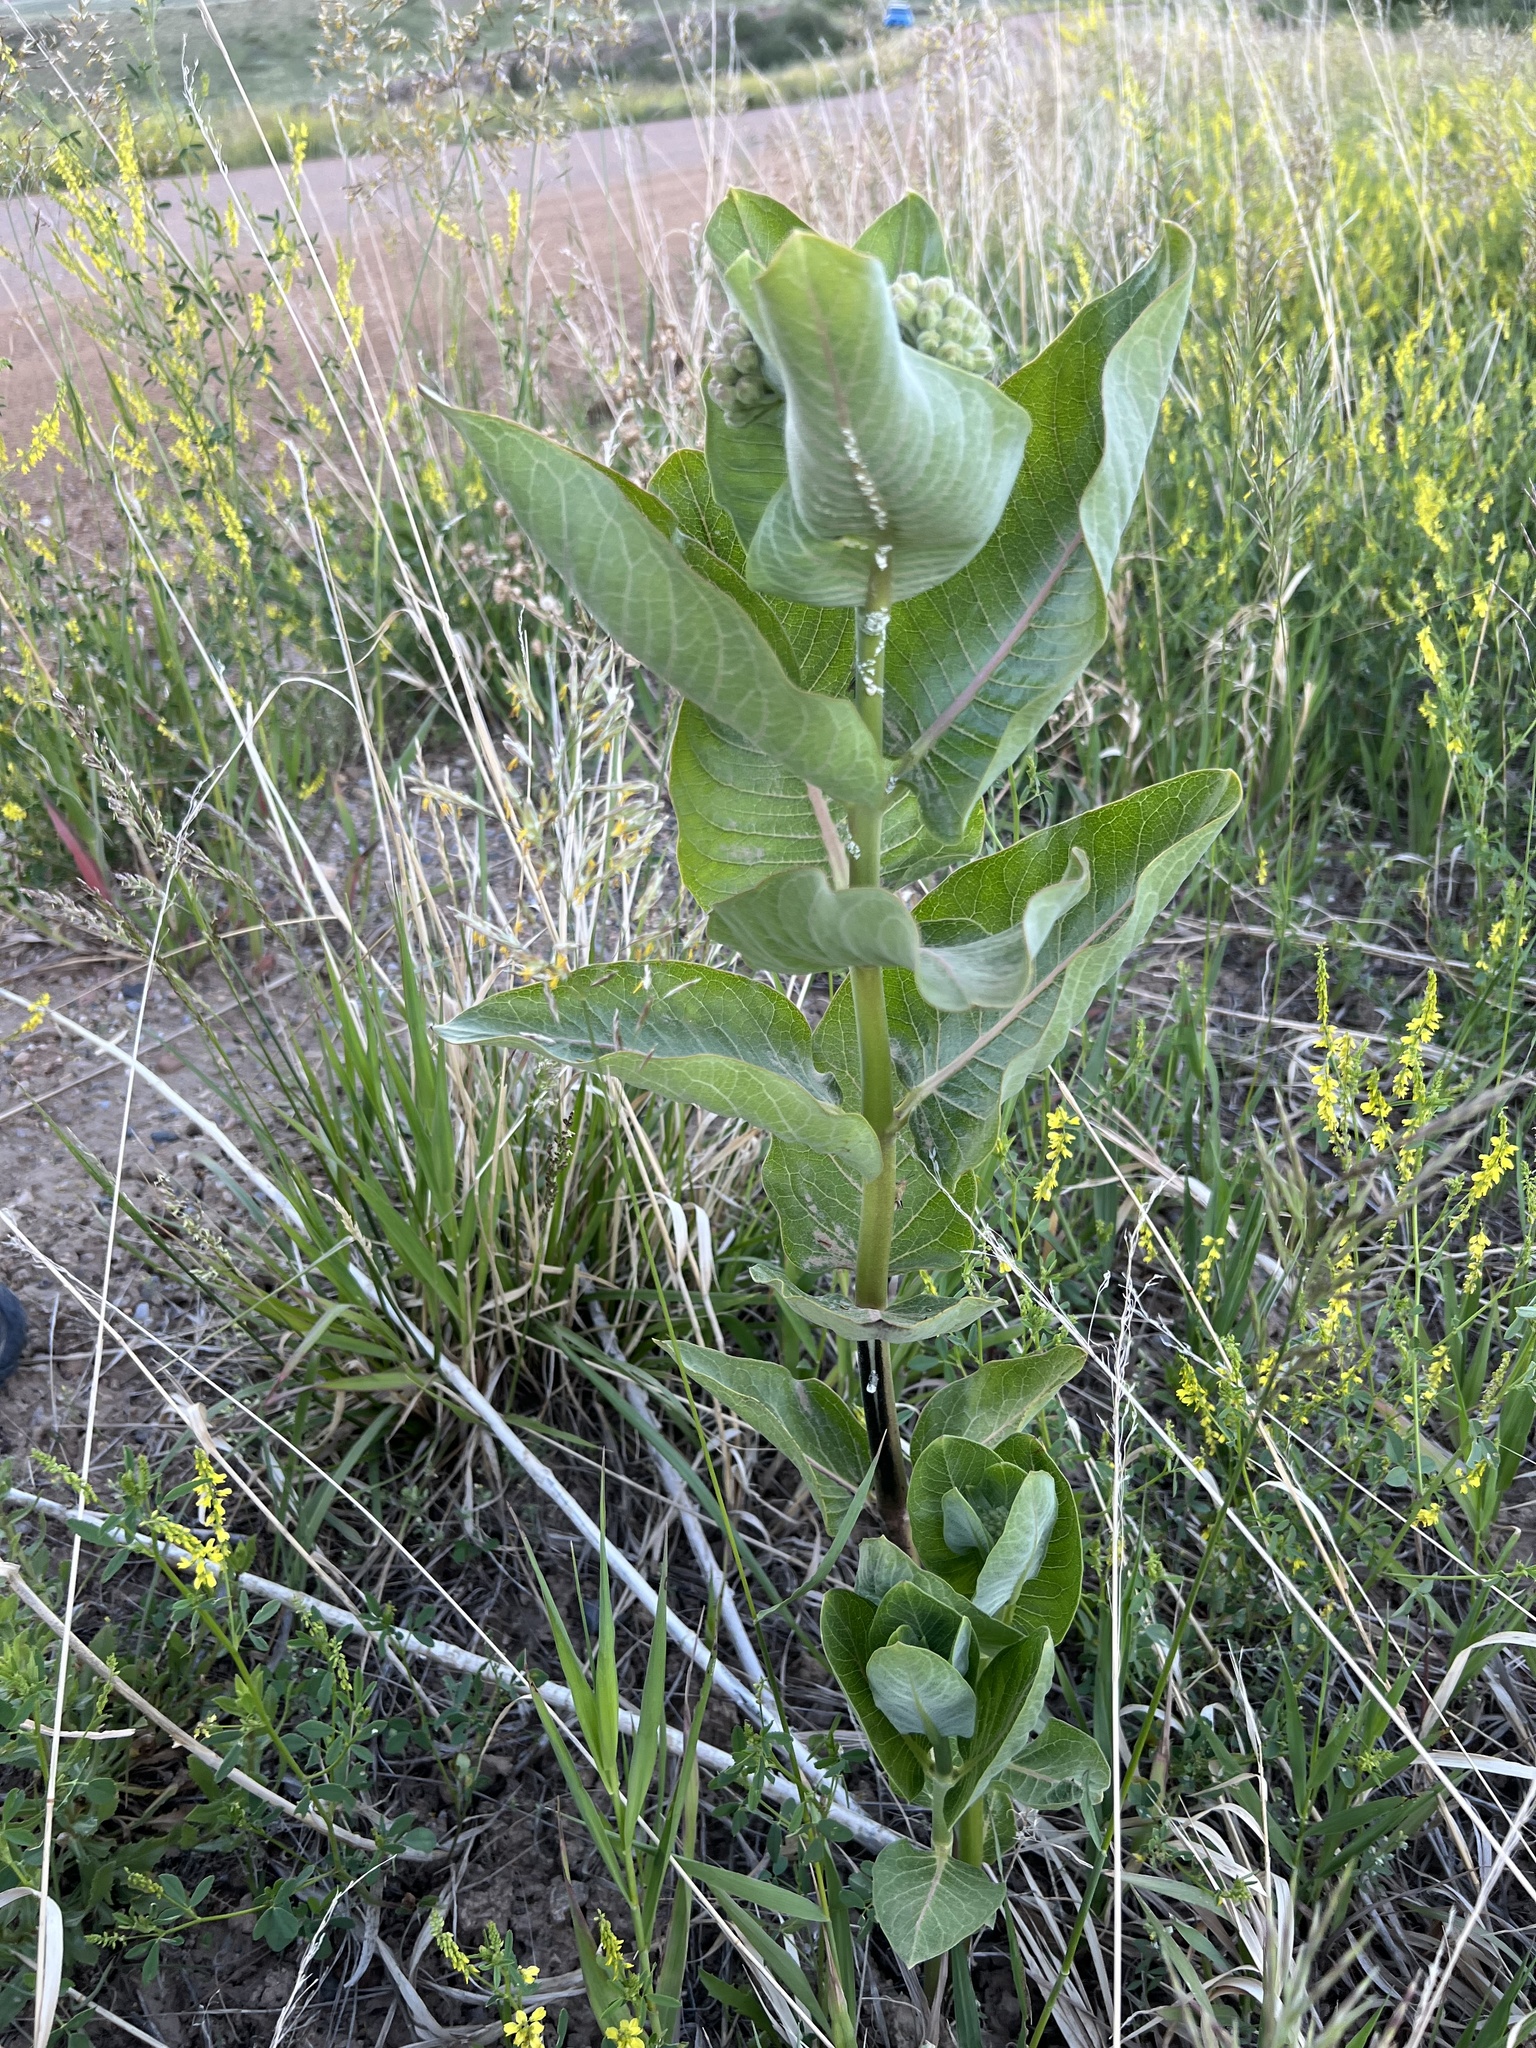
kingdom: Plantae
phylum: Tracheophyta
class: Magnoliopsida
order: Gentianales
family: Apocynaceae
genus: Asclepias
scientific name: Asclepias speciosa
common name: Showy milkweed
